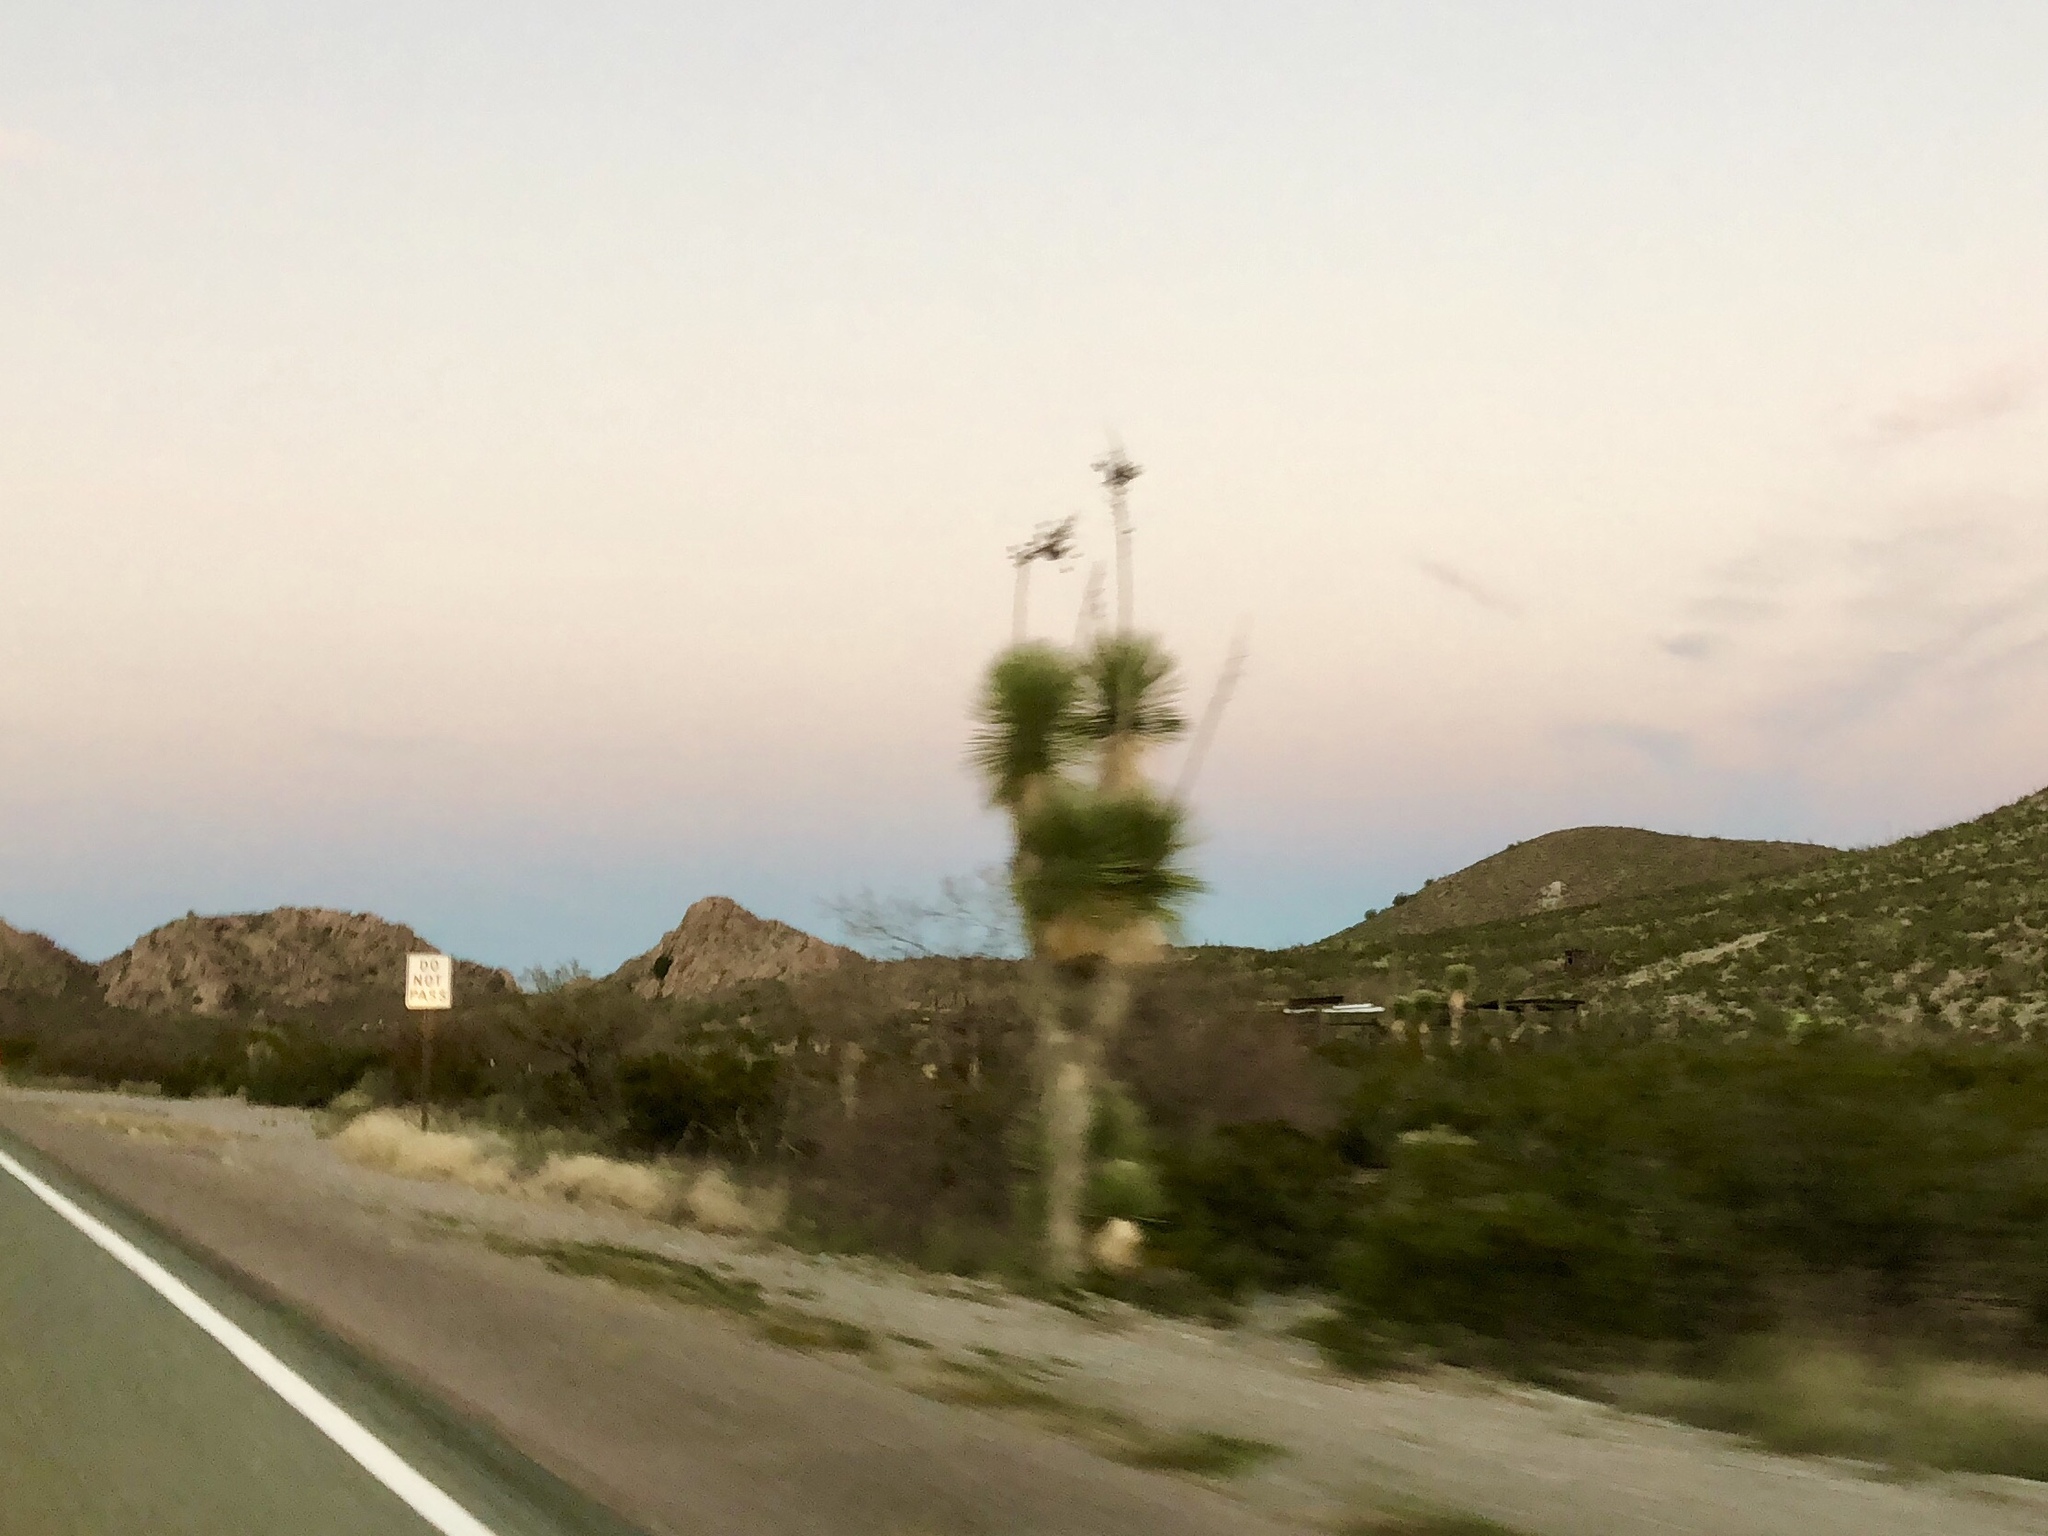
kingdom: Plantae
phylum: Tracheophyta
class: Liliopsida
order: Asparagales
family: Asparagaceae
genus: Yucca
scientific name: Yucca elata
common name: Palmella
